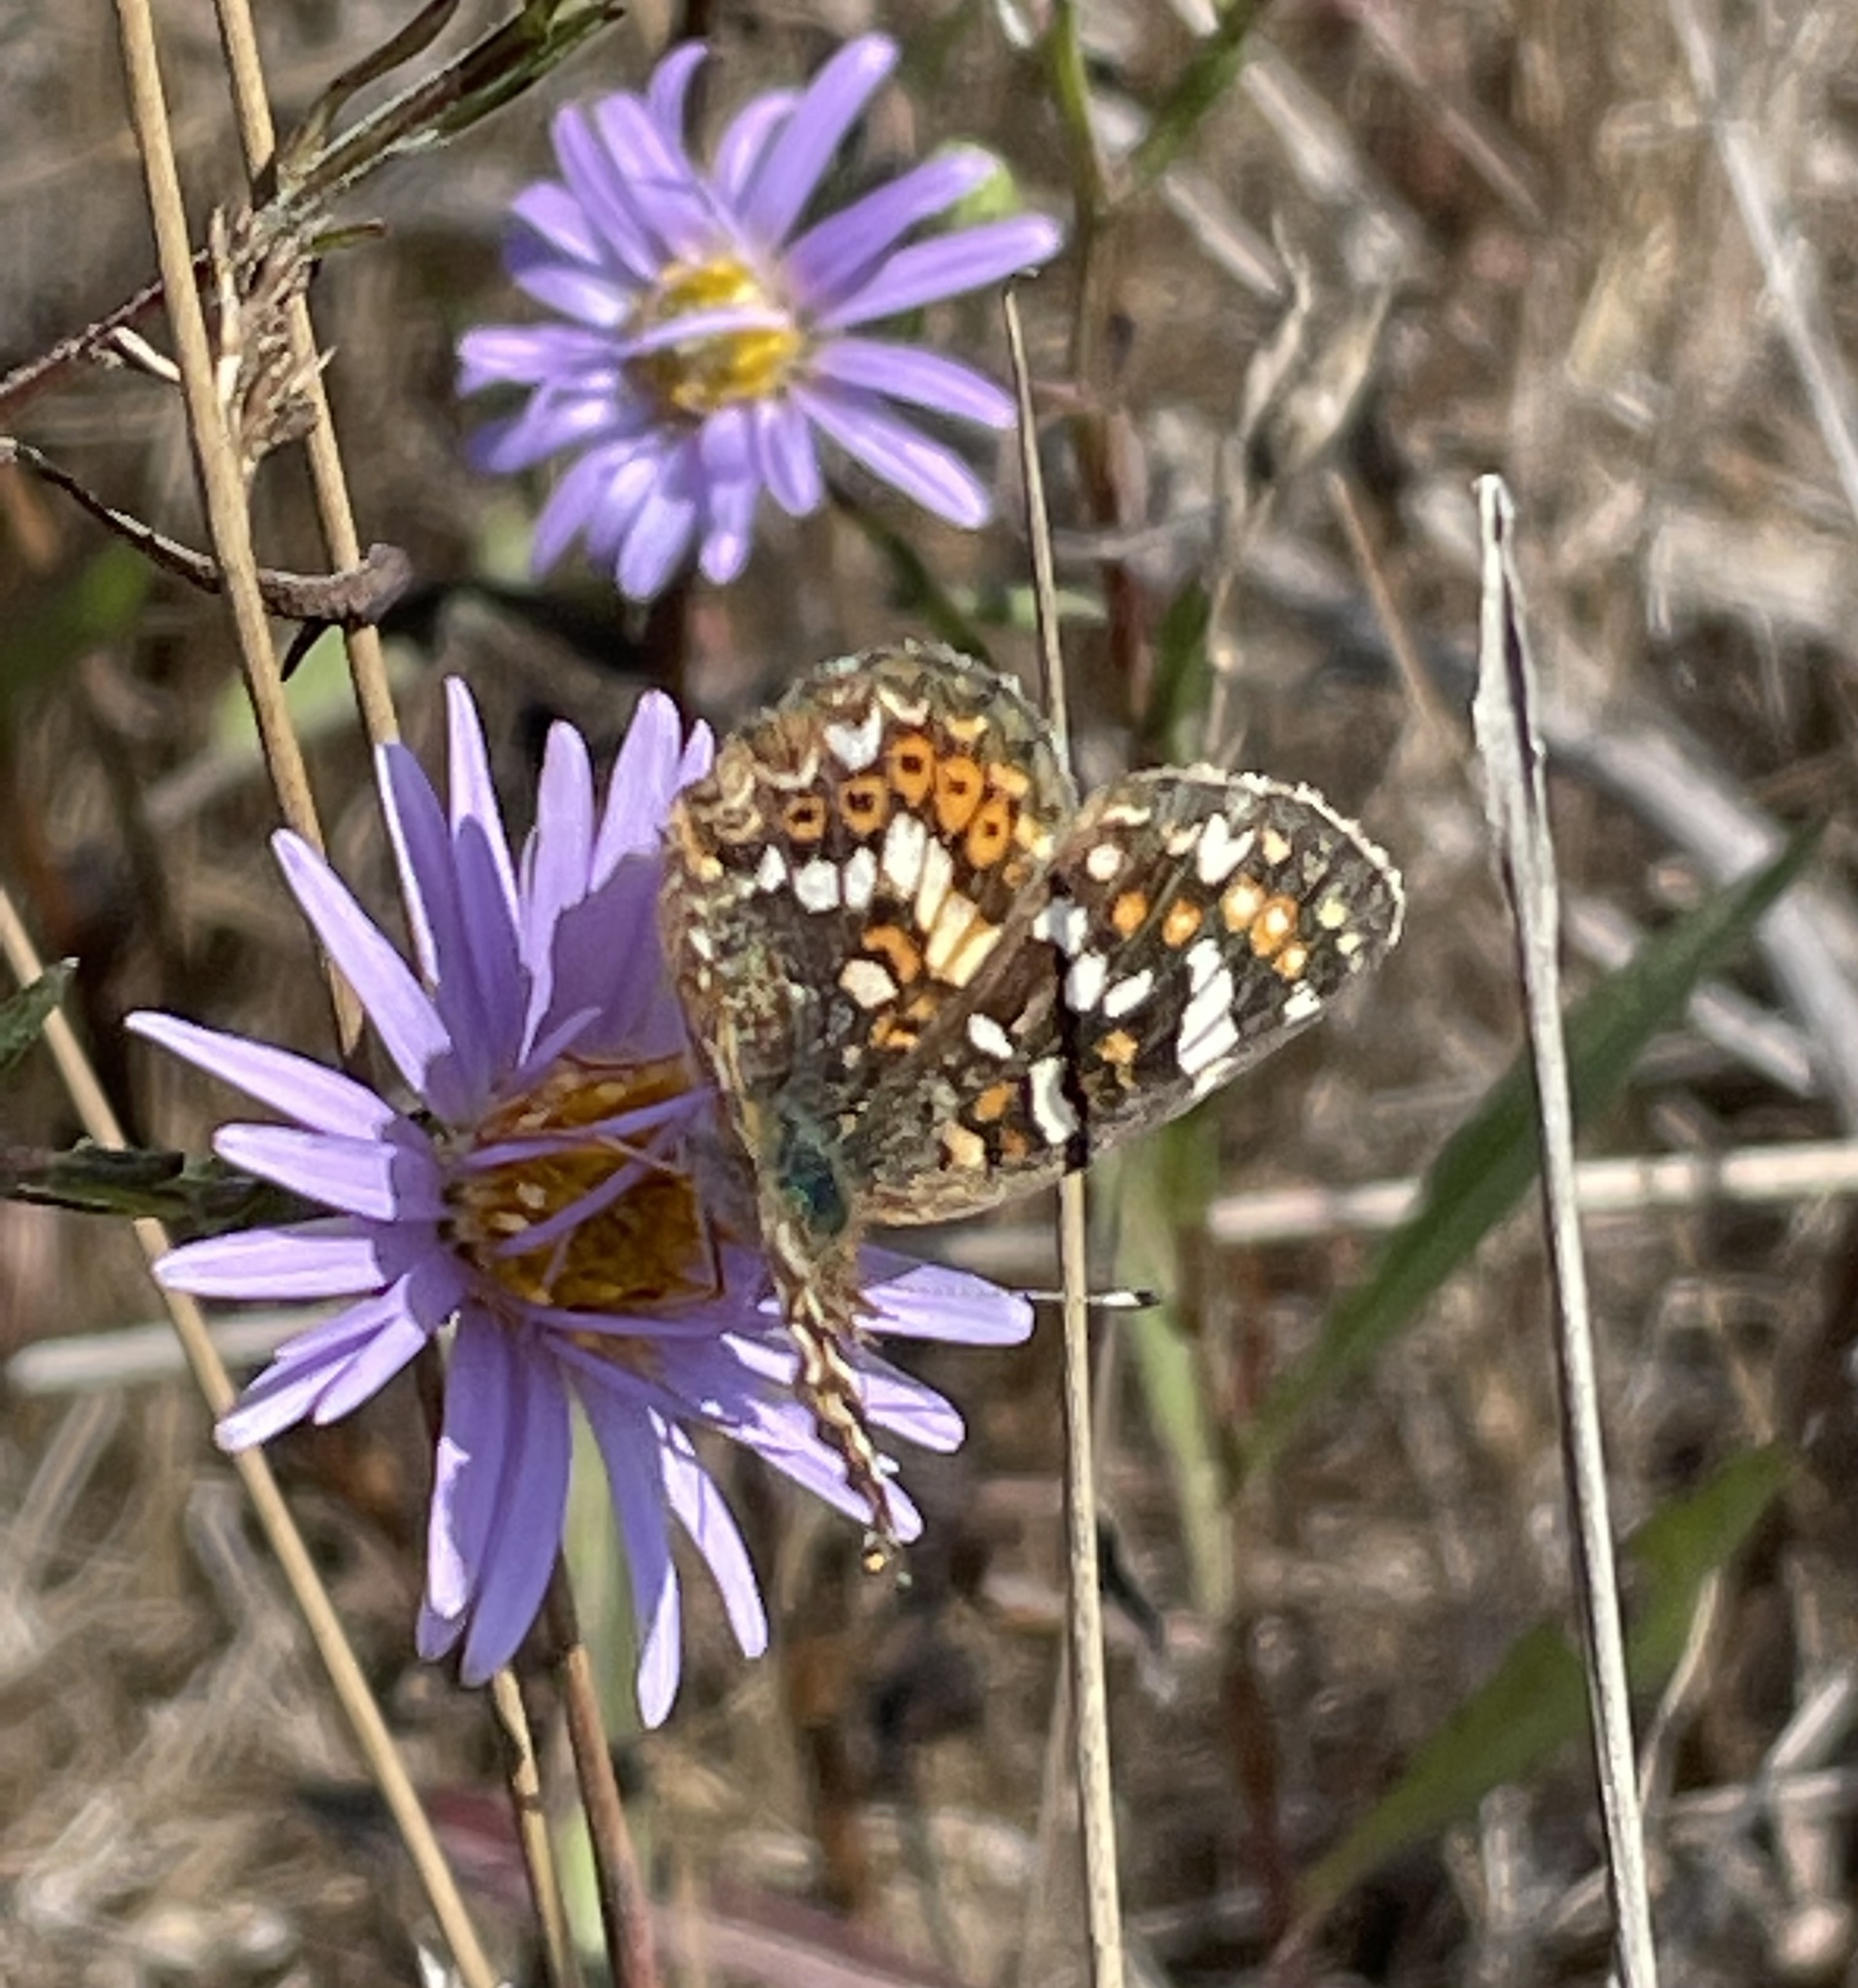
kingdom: Animalia
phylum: Arthropoda
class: Insecta
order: Lepidoptera
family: Nymphalidae
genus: Phyciodes
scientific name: Phyciodes tharos
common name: Pearl crescent
